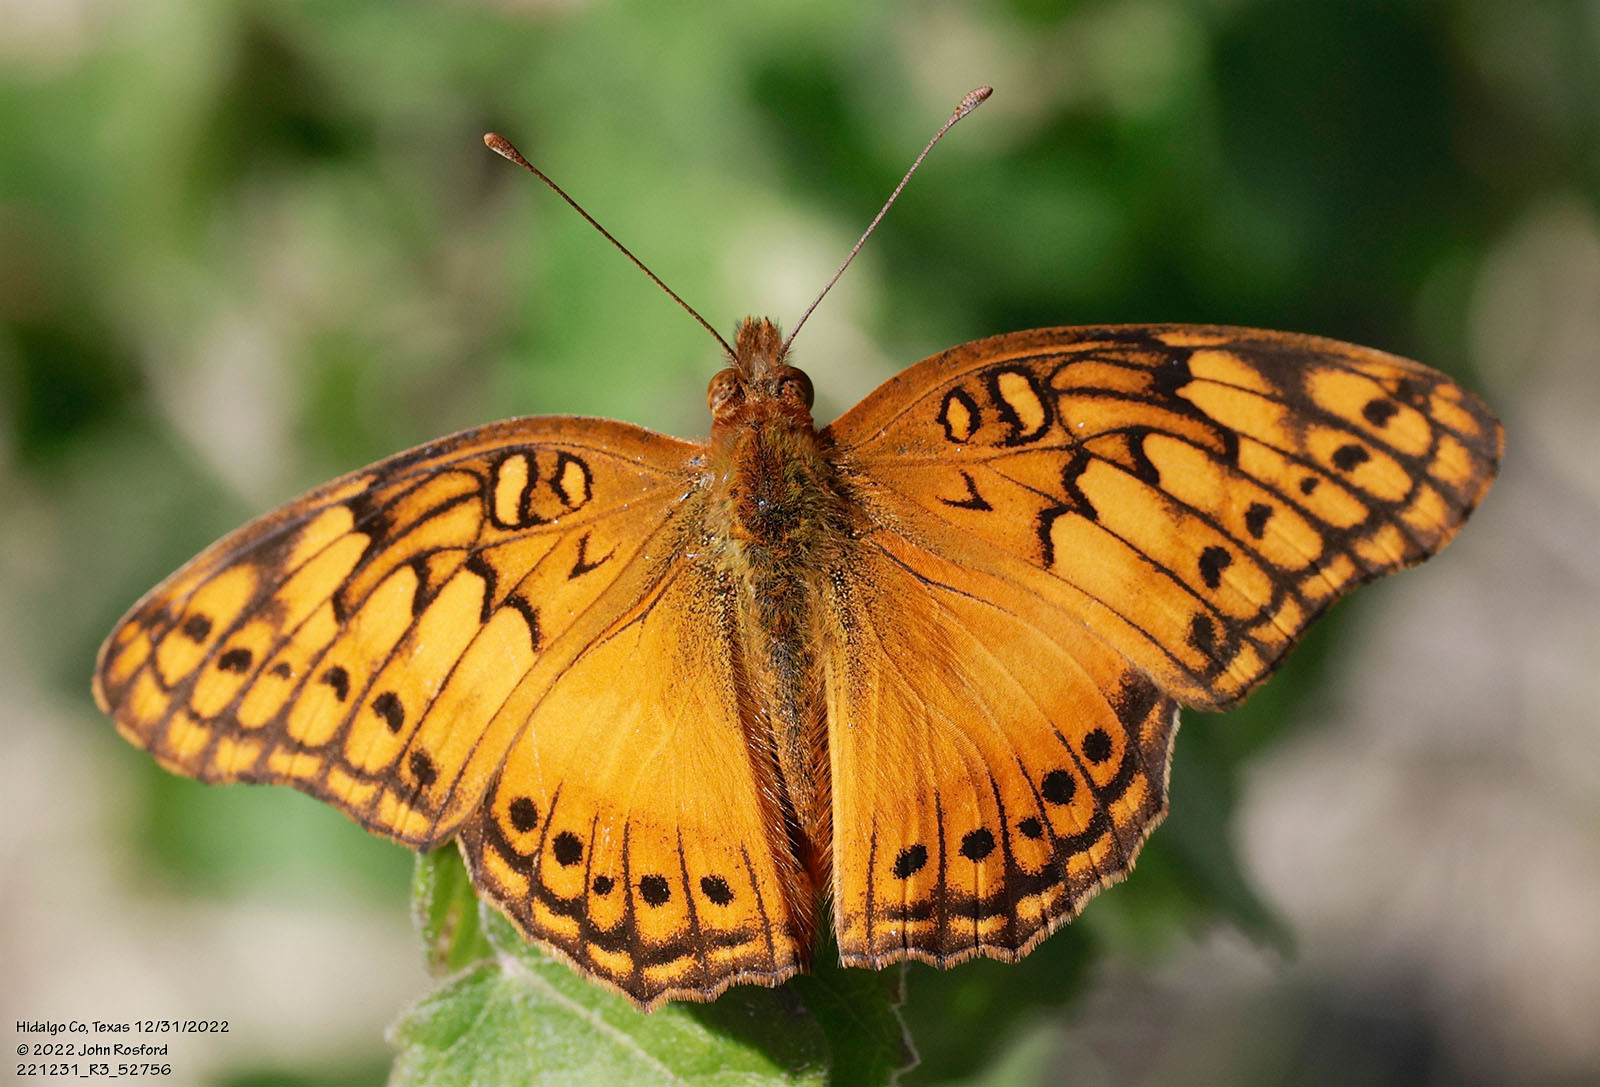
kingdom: Animalia
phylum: Arthropoda
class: Insecta
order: Lepidoptera
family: Nymphalidae
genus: Euptoieta
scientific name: Euptoieta hegesia
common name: Mexican fritillary
